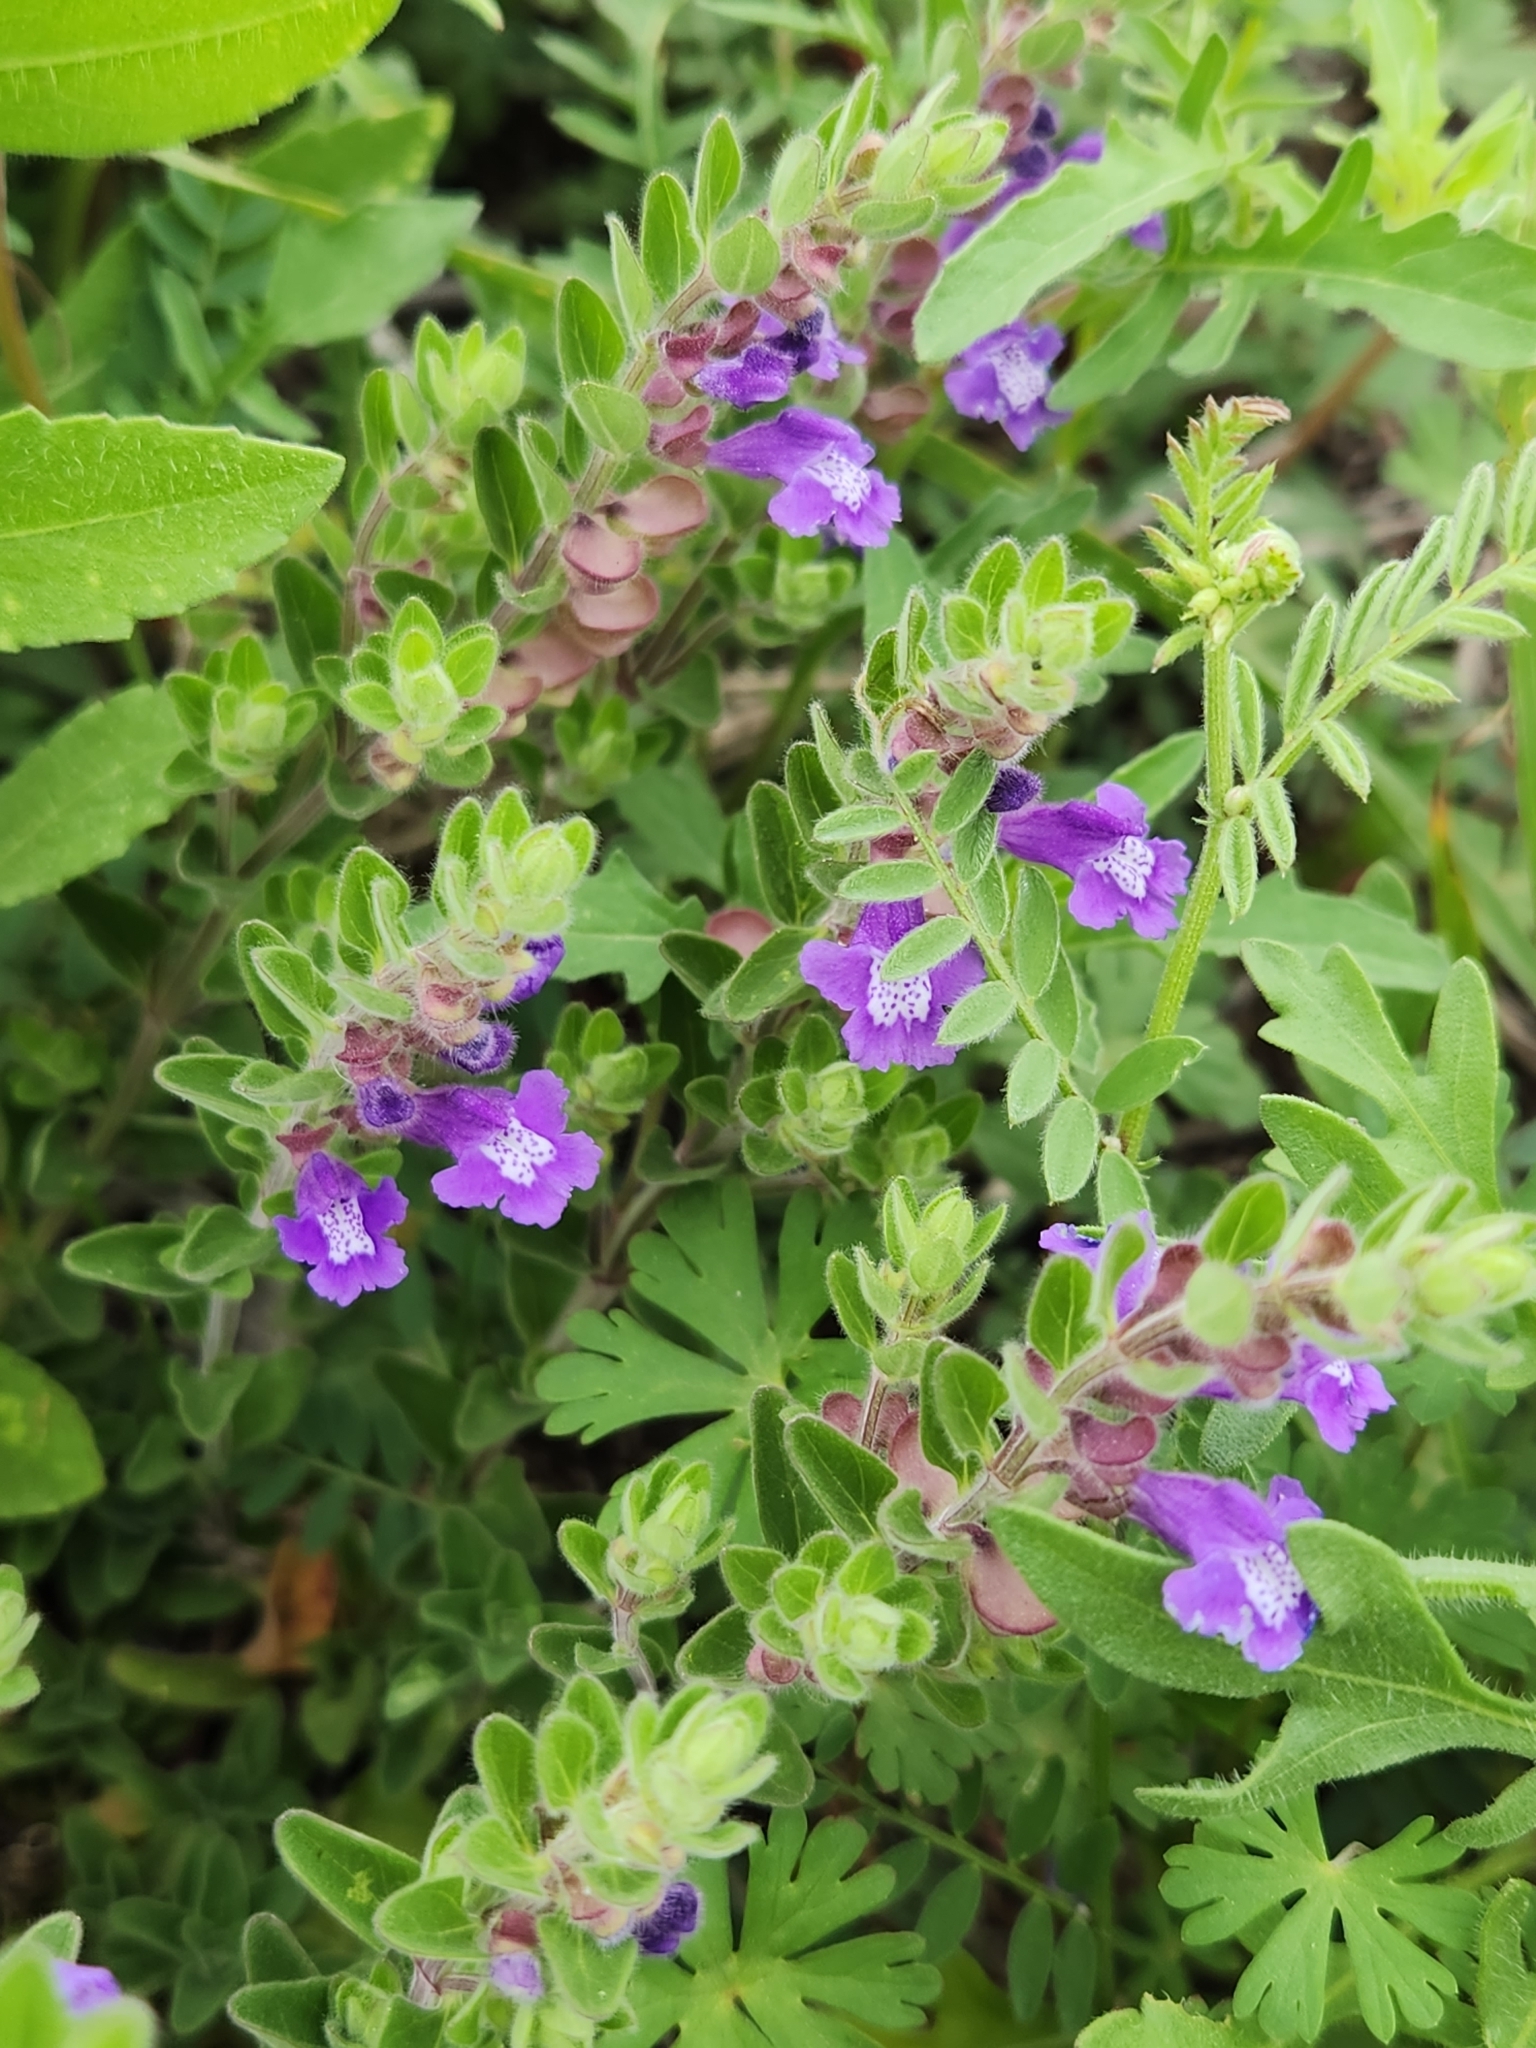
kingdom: Plantae
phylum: Tracheophyta
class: Magnoliopsida
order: Lamiales
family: Lamiaceae
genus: Scutellaria
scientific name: Scutellaria drummondii
